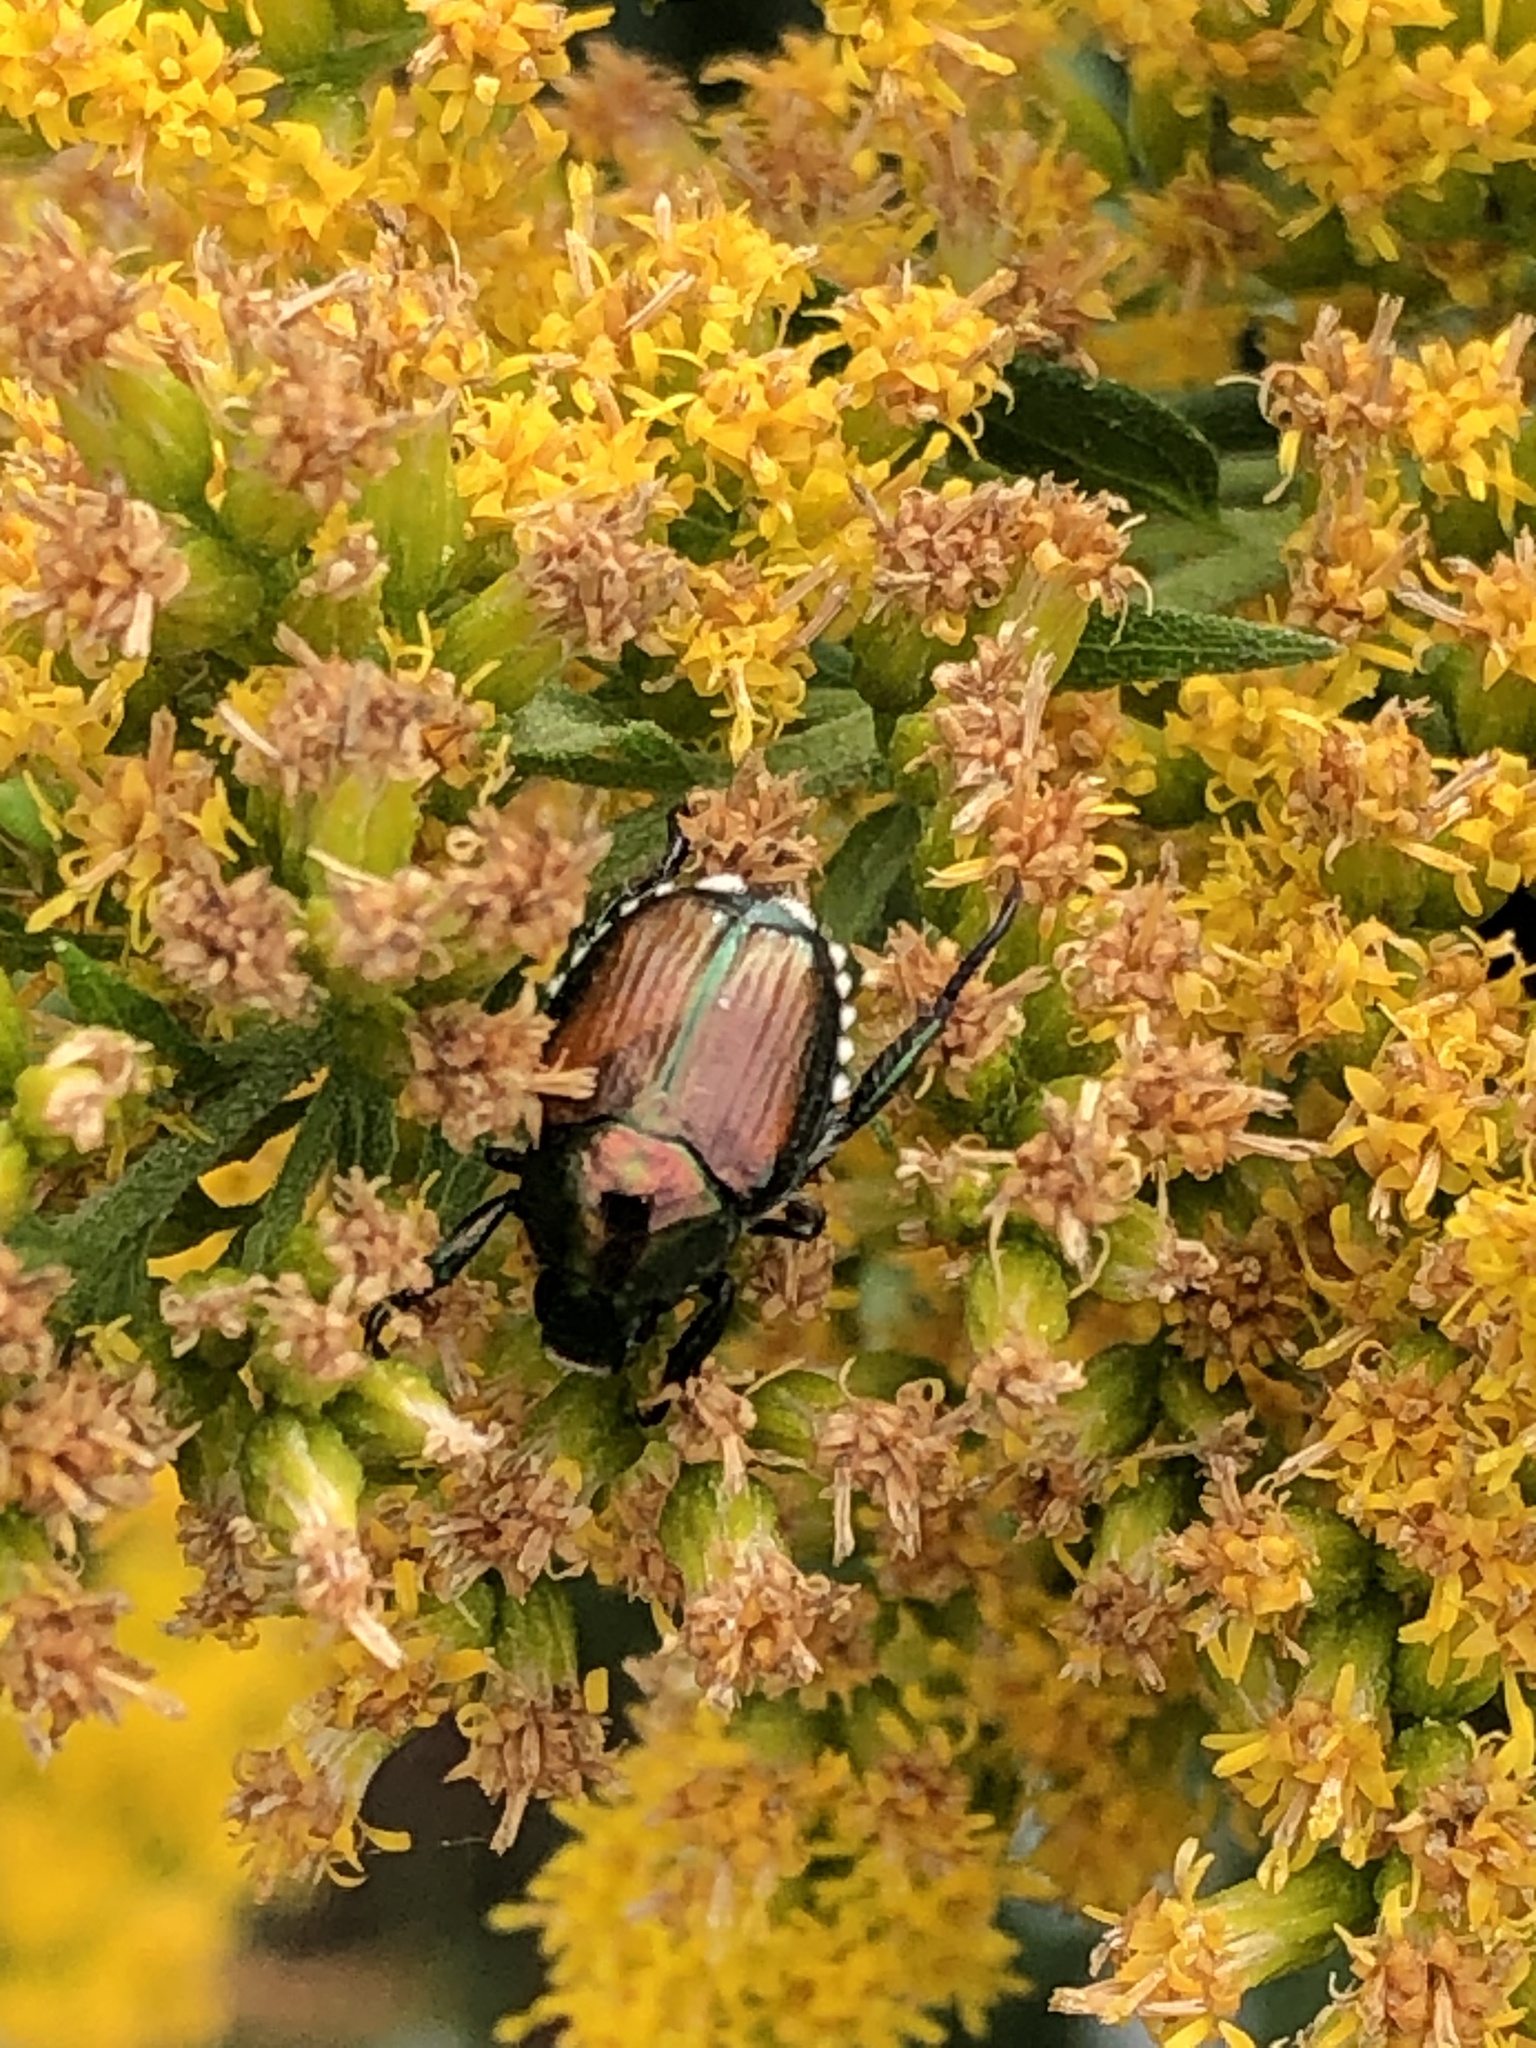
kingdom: Animalia
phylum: Arthropoda
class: Insecta
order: Coleoptera
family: Scarabaeidae
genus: Popillia
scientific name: Popillia japonica
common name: Japanese beetle
